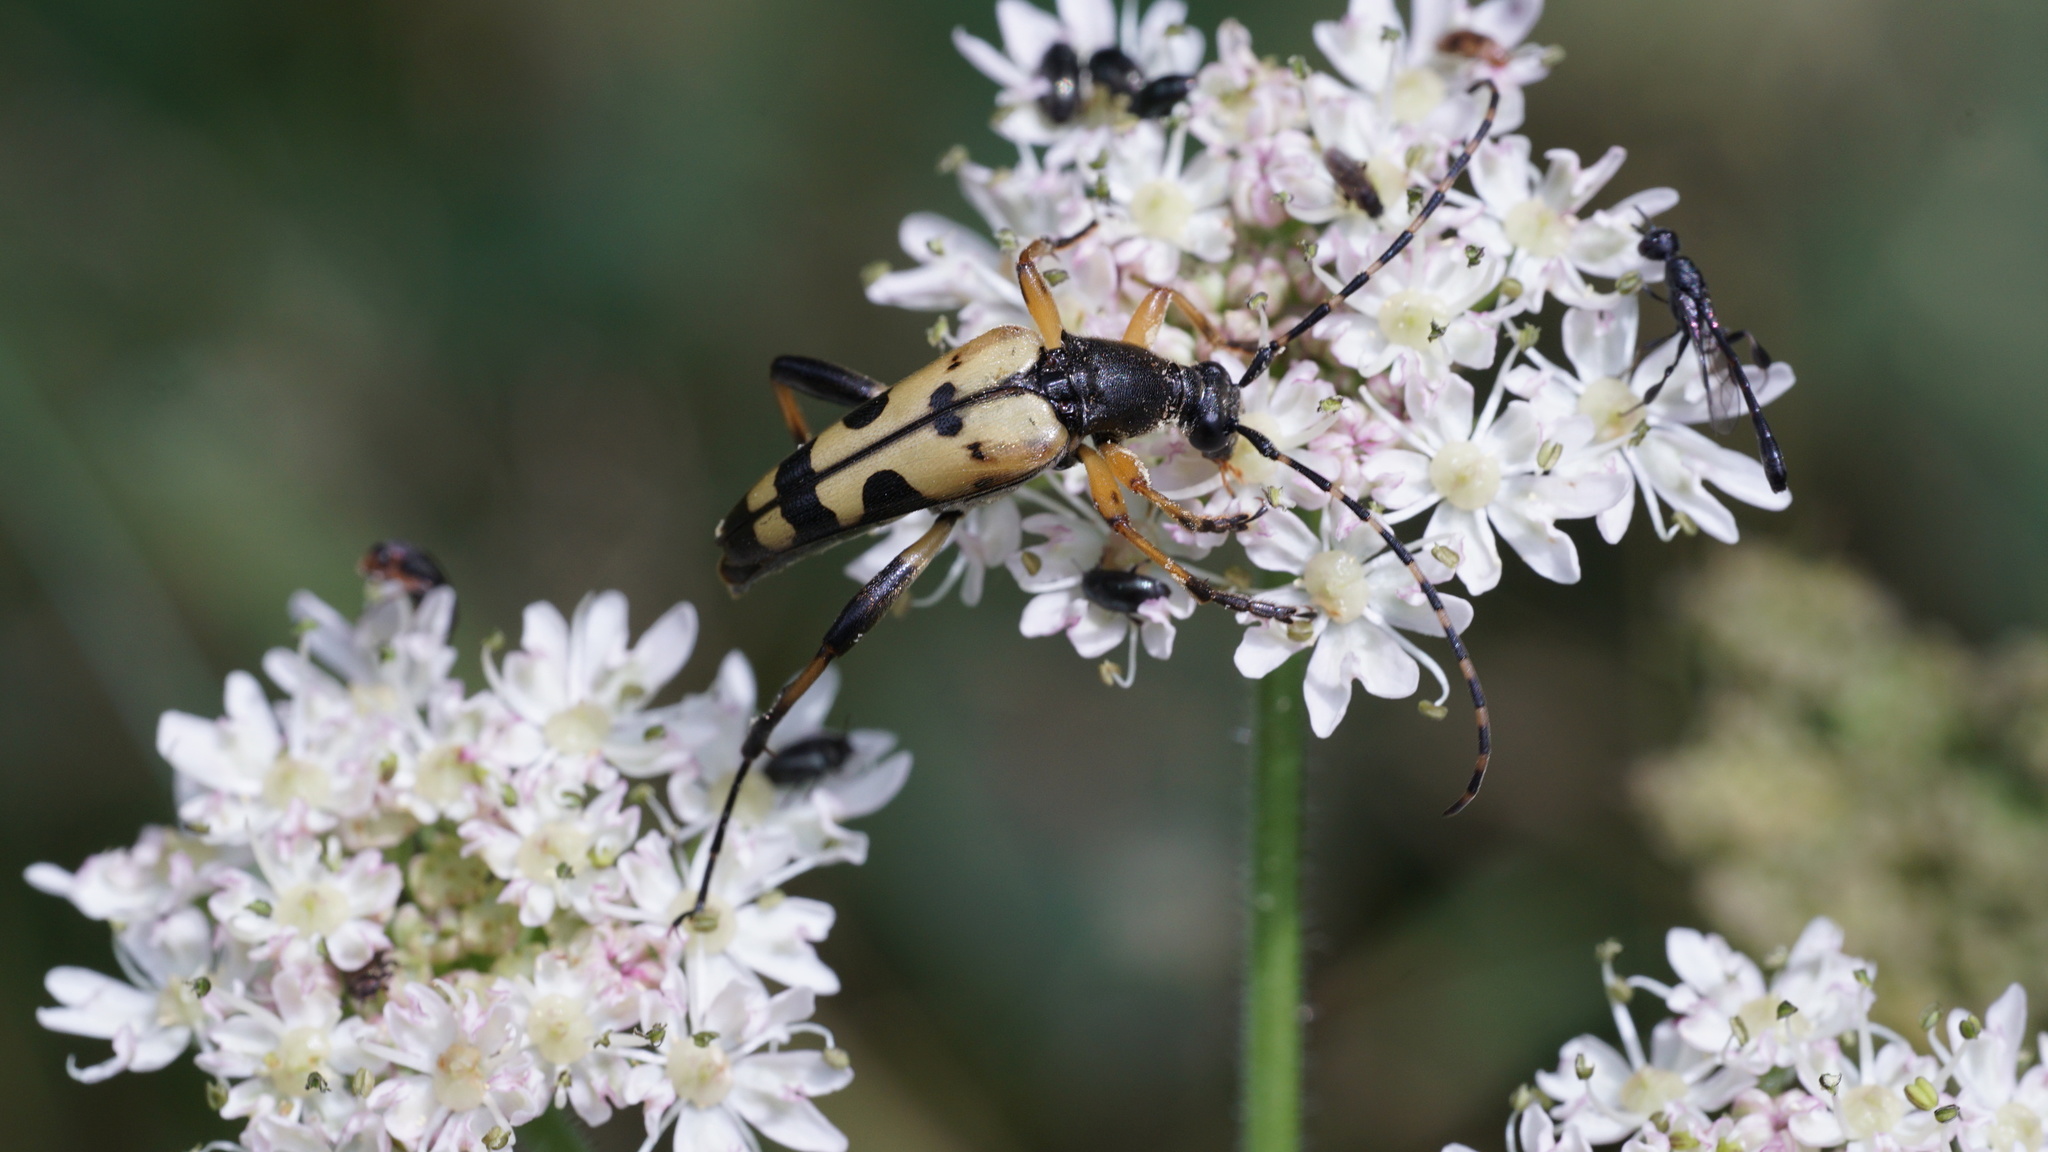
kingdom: Animalia
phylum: Arthropoda
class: Insecta
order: Coleoptera
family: Cerambycidae
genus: Rutpela
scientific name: Rutpela maculata
